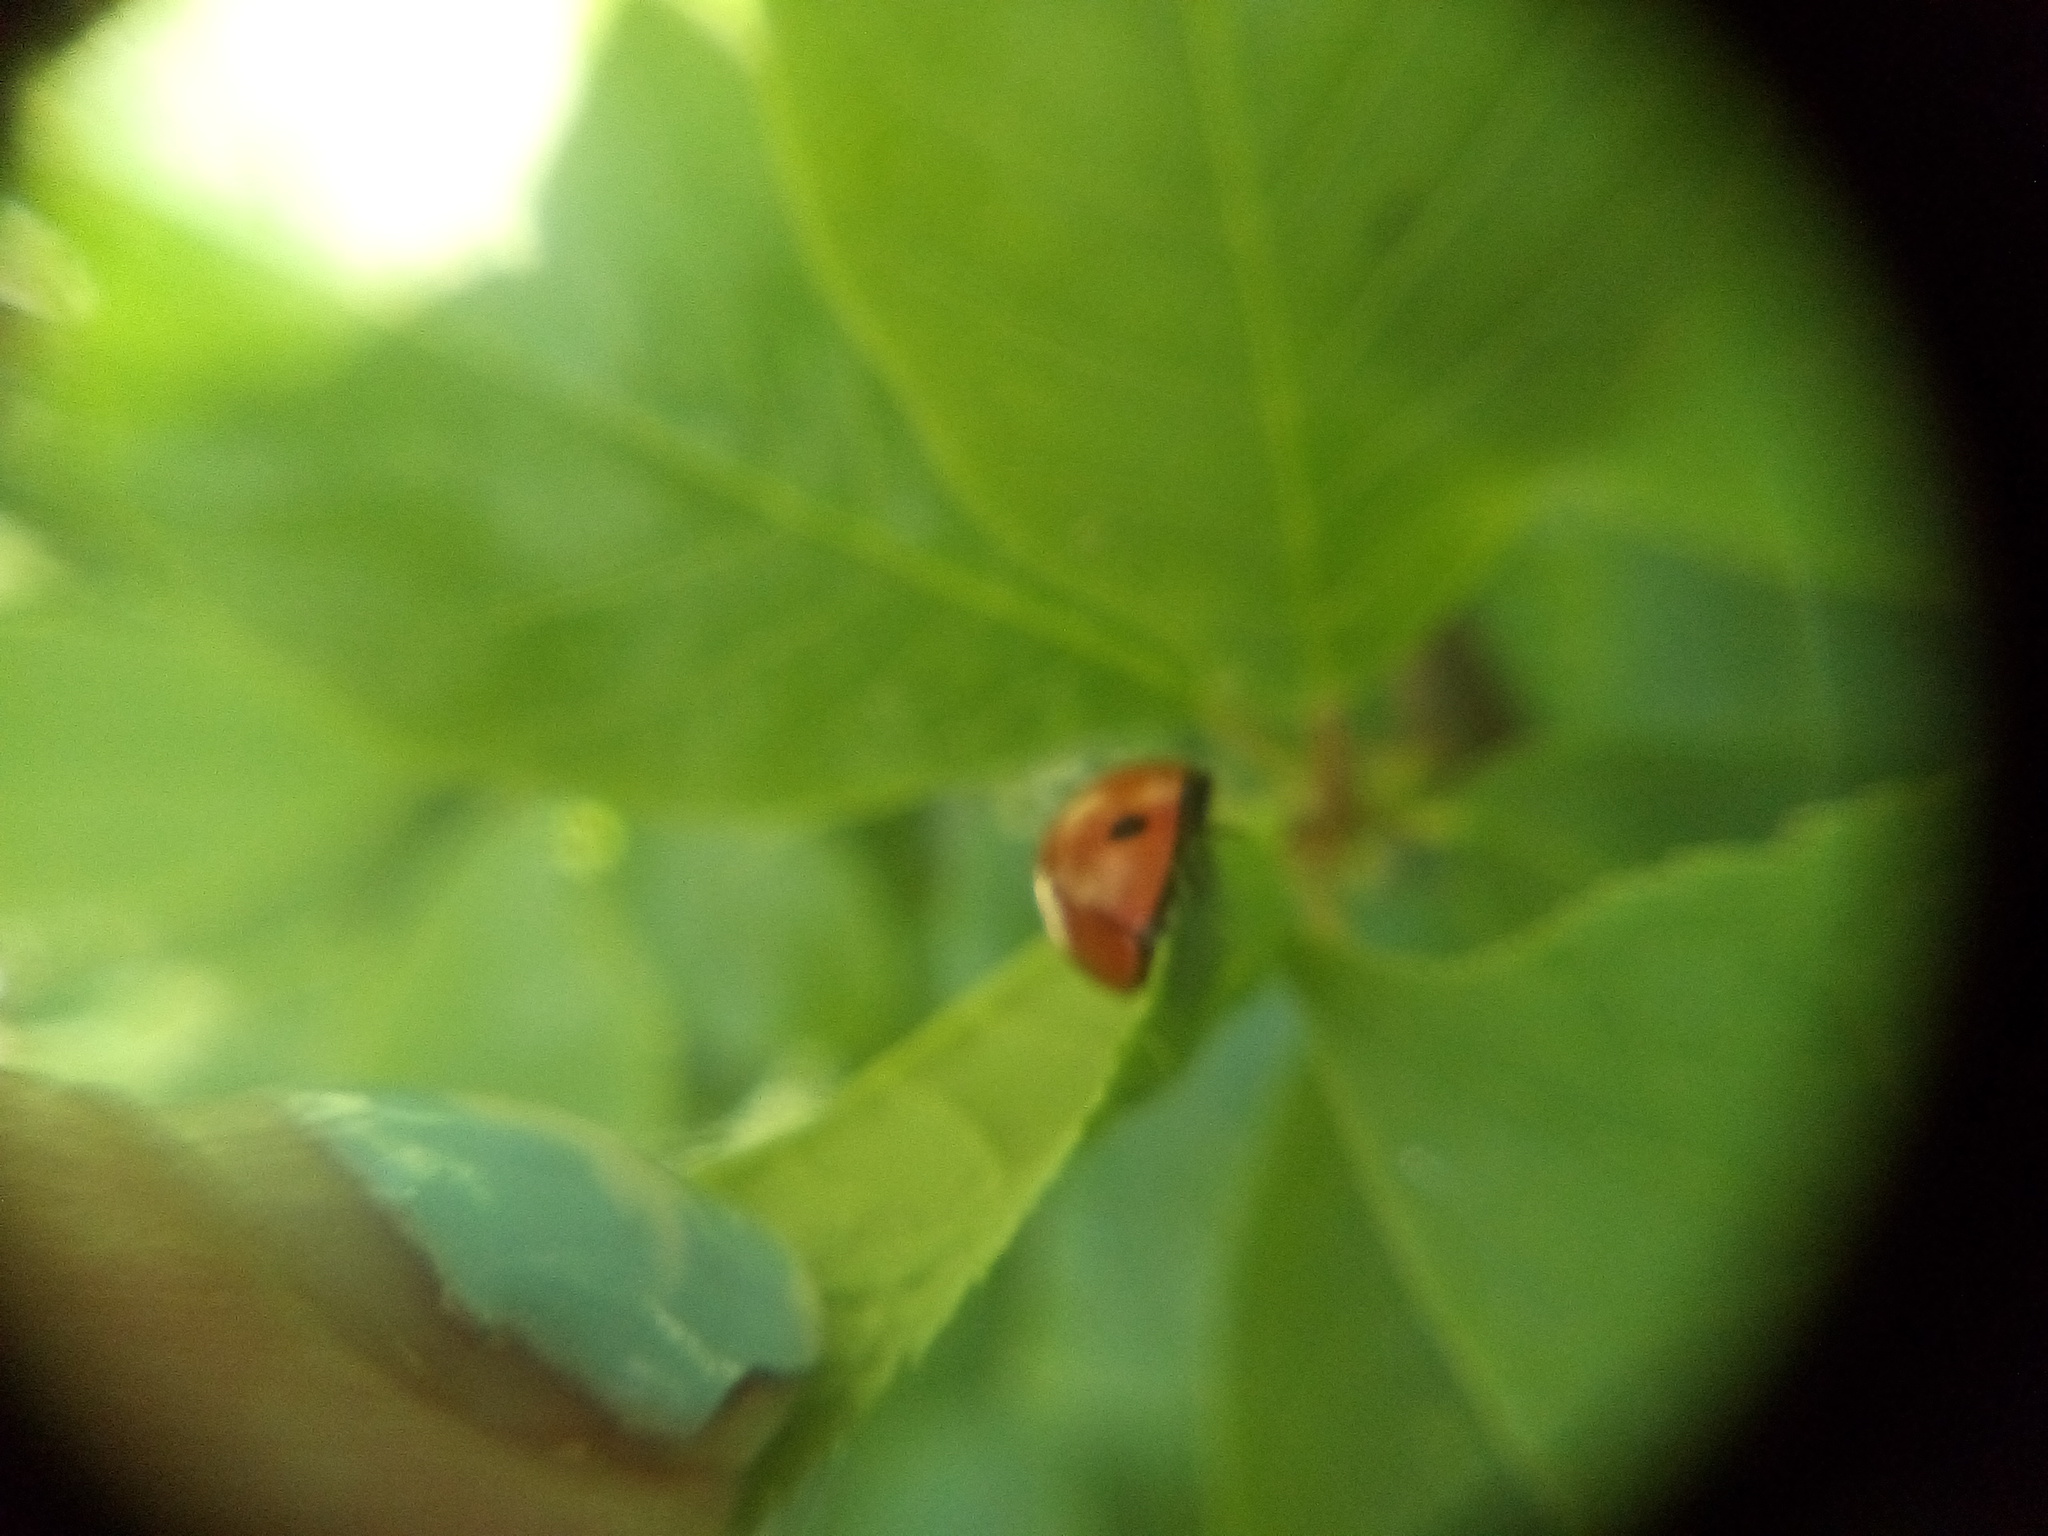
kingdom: Animalia
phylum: Arthropoda
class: Insecta
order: Coleoptera
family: Coccinellidae
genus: Coccinella
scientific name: Coccinella septempunctata
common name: Sevenspotted lady beetle
